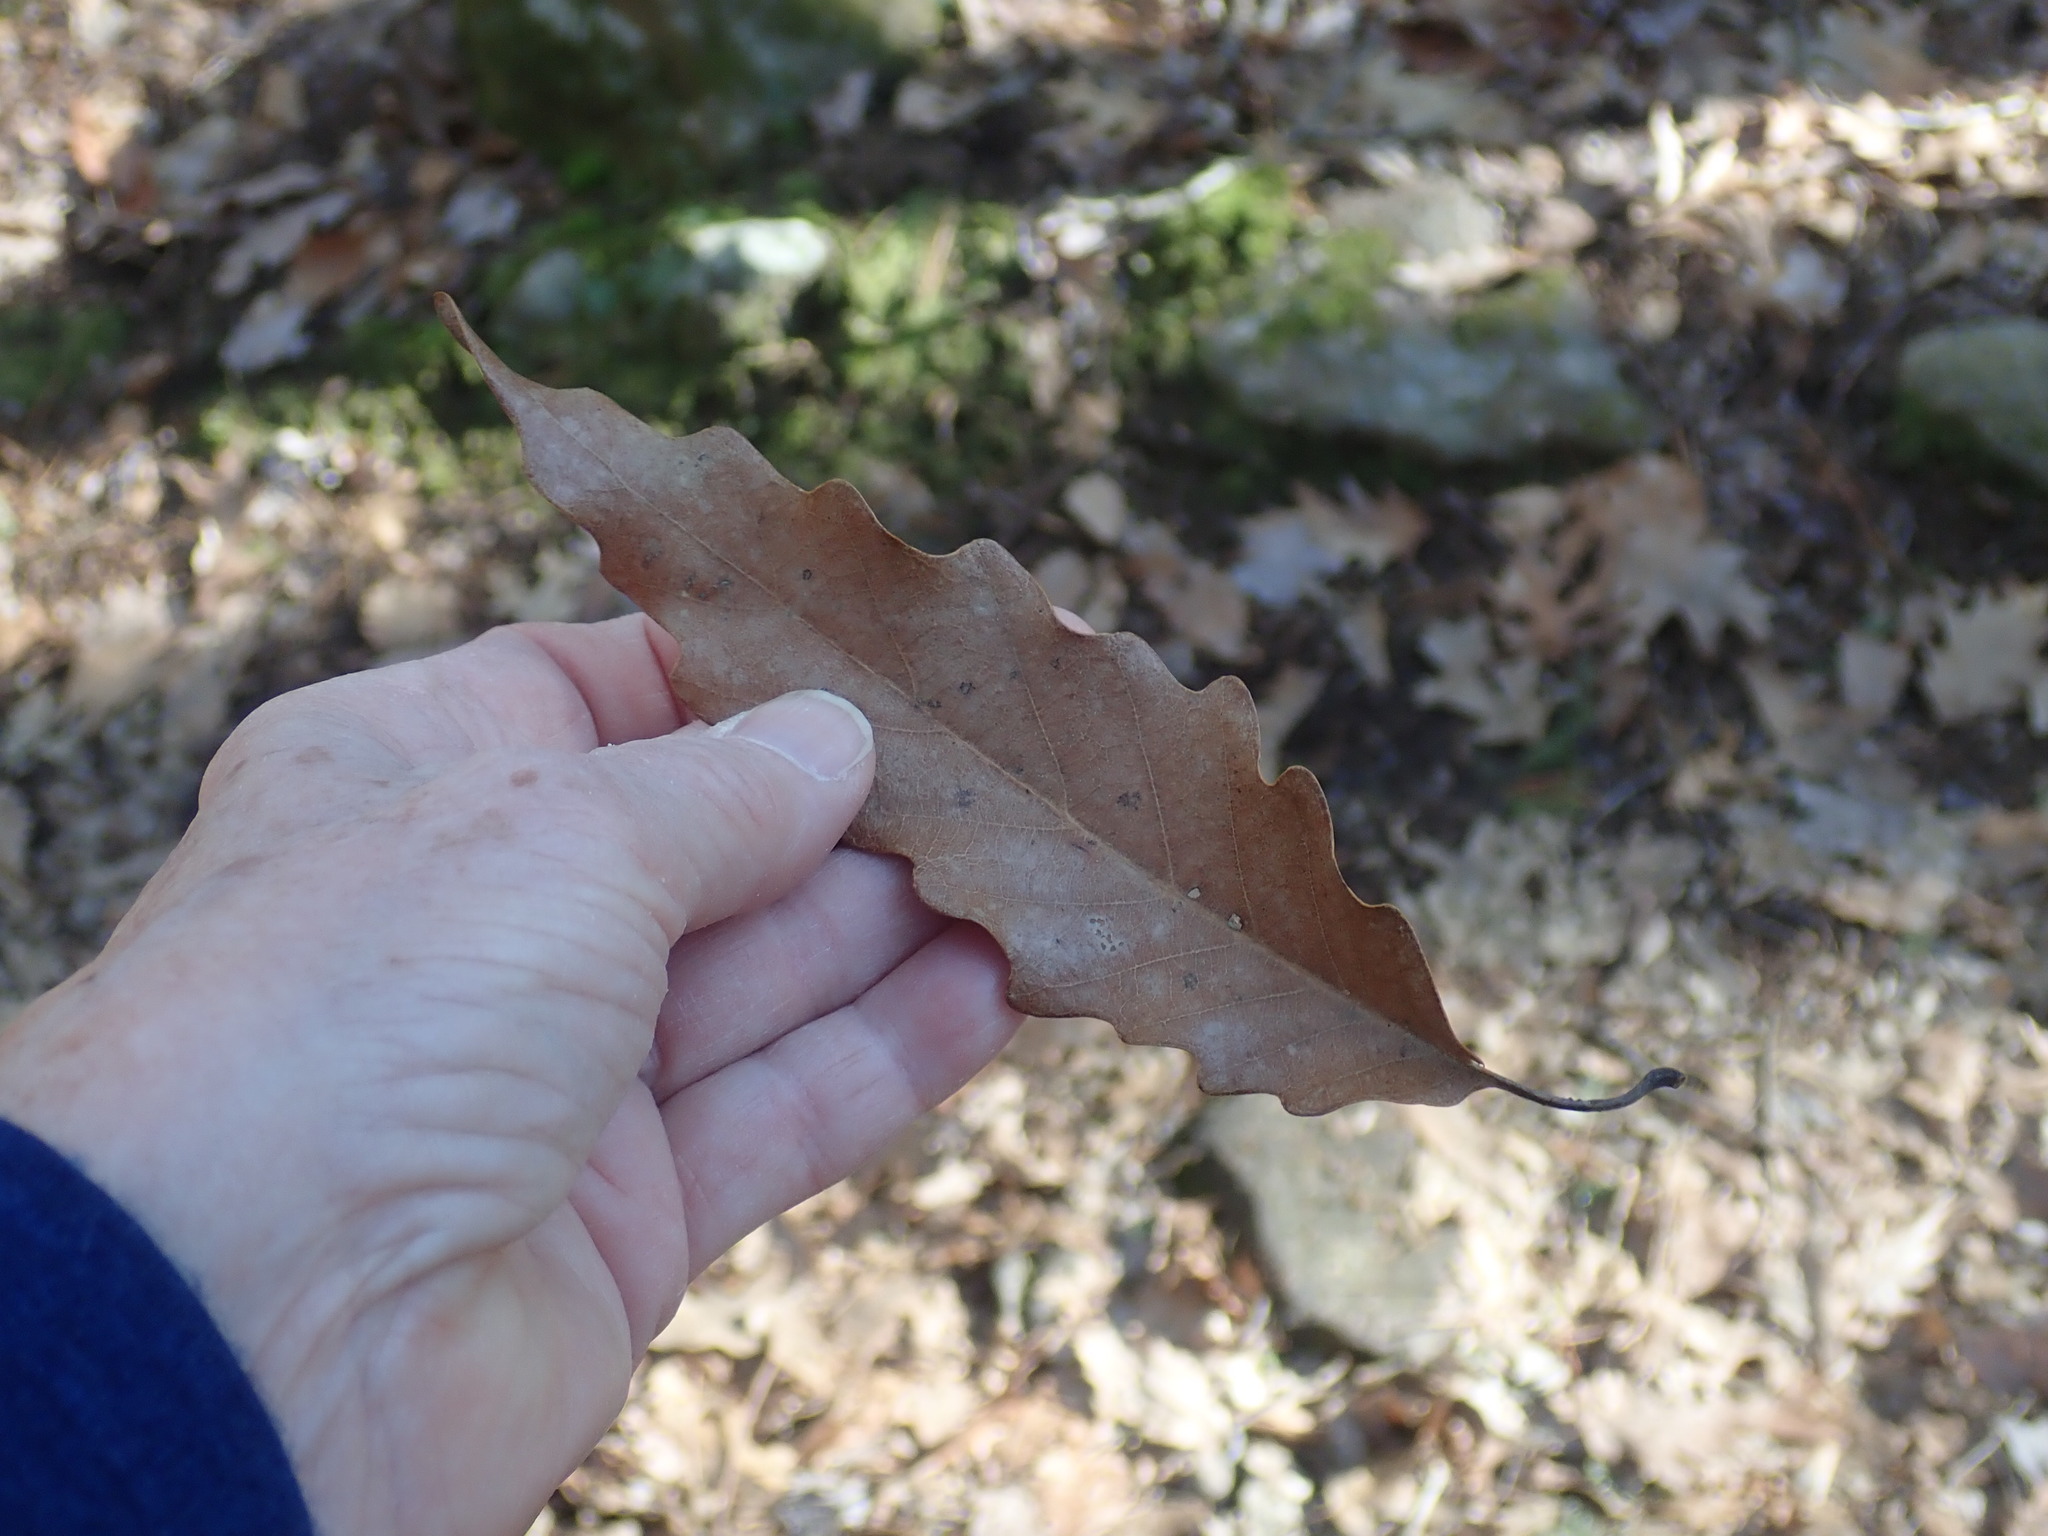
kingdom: Plantae
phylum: Tracheophyta
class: Magnoliopsida
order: Fagales
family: Fagaceae
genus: Quercus
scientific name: Quercus montana
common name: Chestnut oak
